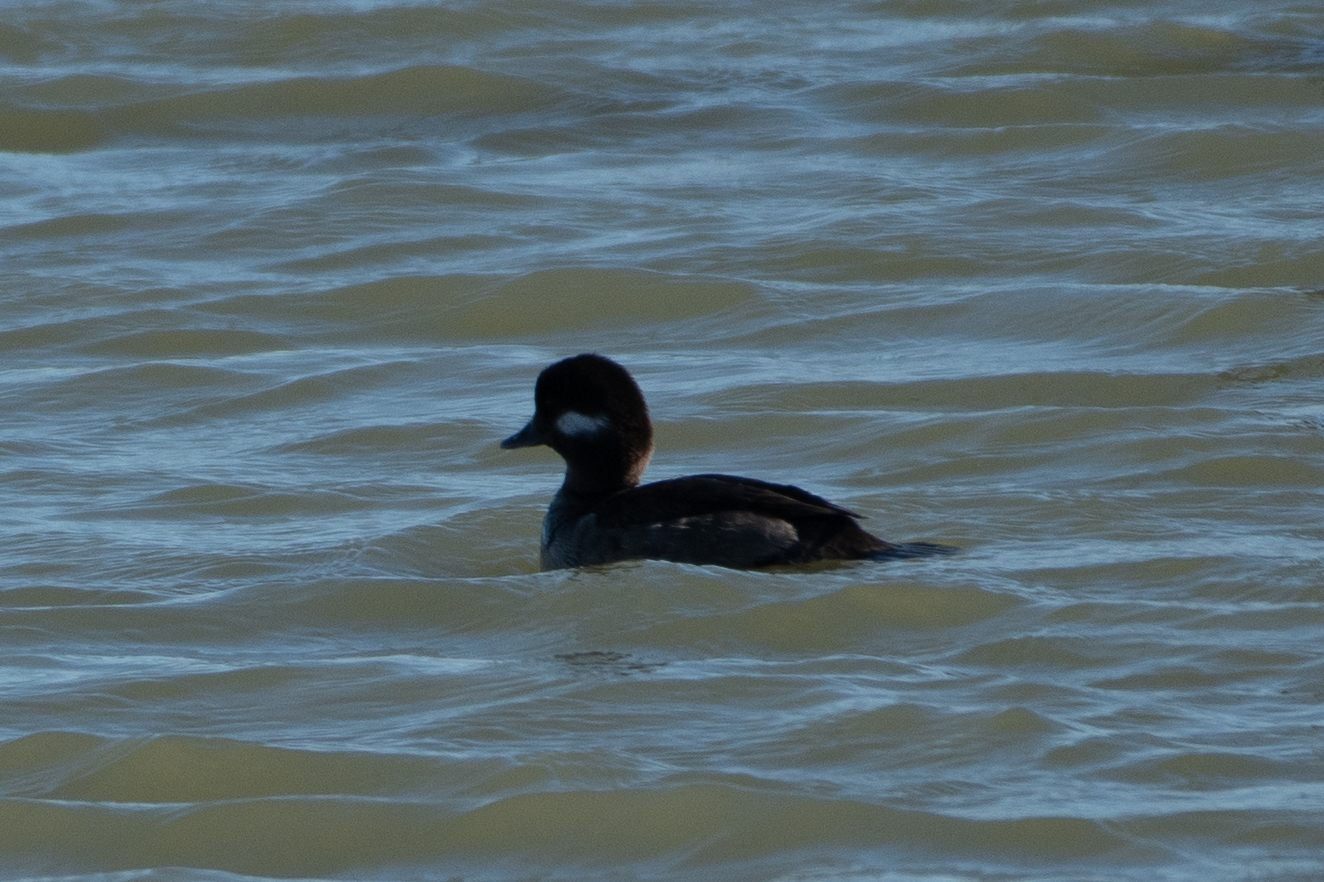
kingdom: Animalia
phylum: Chordata
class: Aves
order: Anseriformes
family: Anatidae
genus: Bucephala
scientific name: Bucephala albeola
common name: Bufflehead
